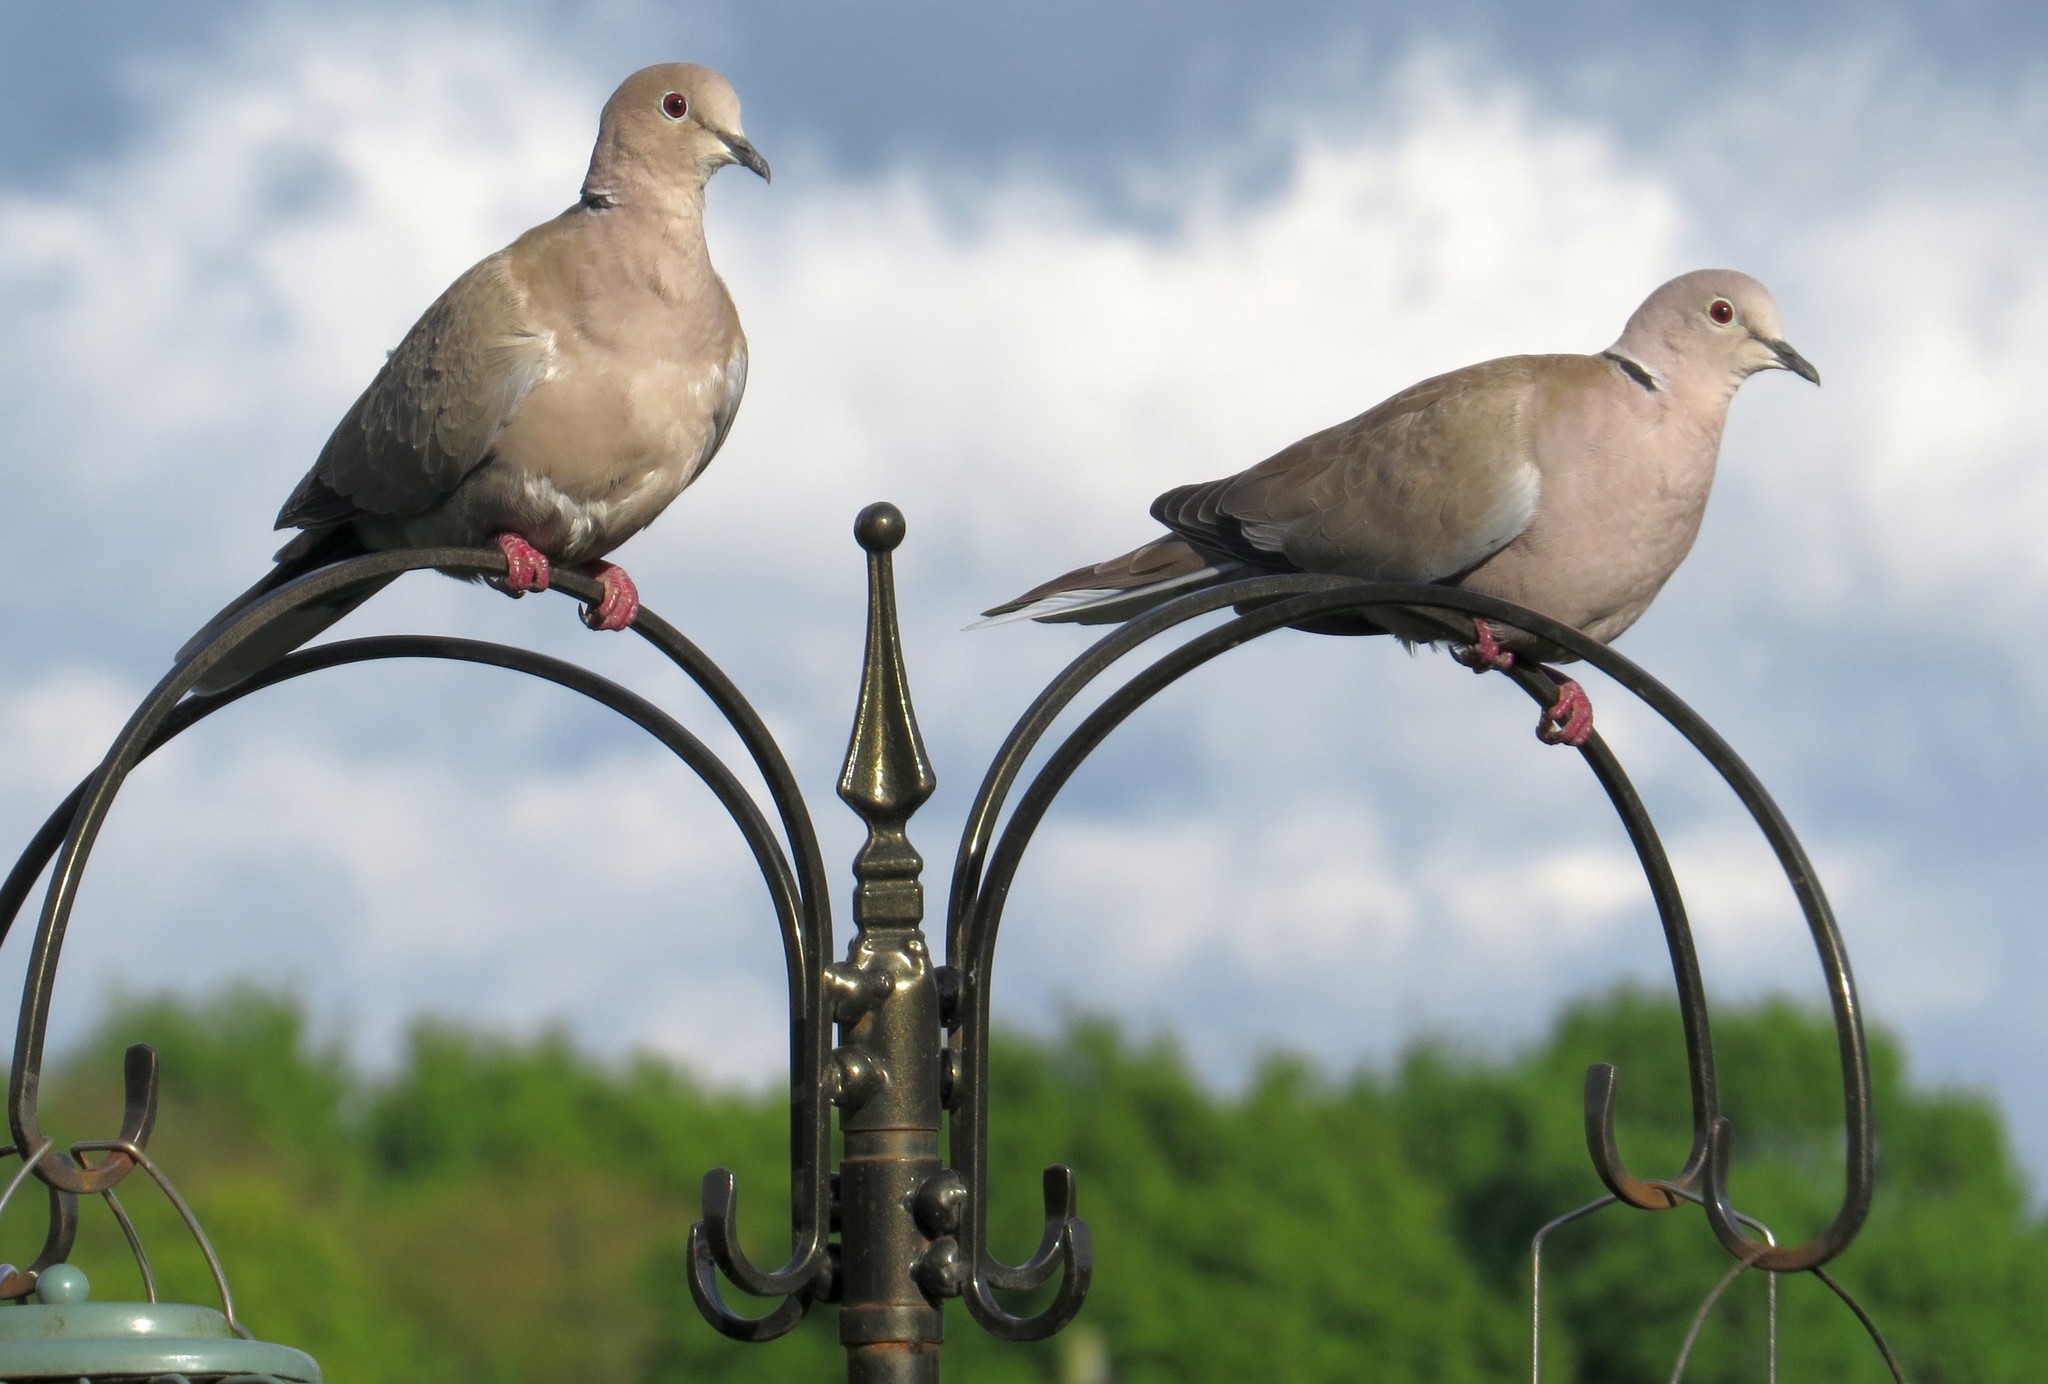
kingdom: Animalia
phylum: Chordata
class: Aves
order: Columbiformes
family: Columbidae
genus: Streptopelia
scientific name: Streptopelia decaocto
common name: Eurasian collared dove
